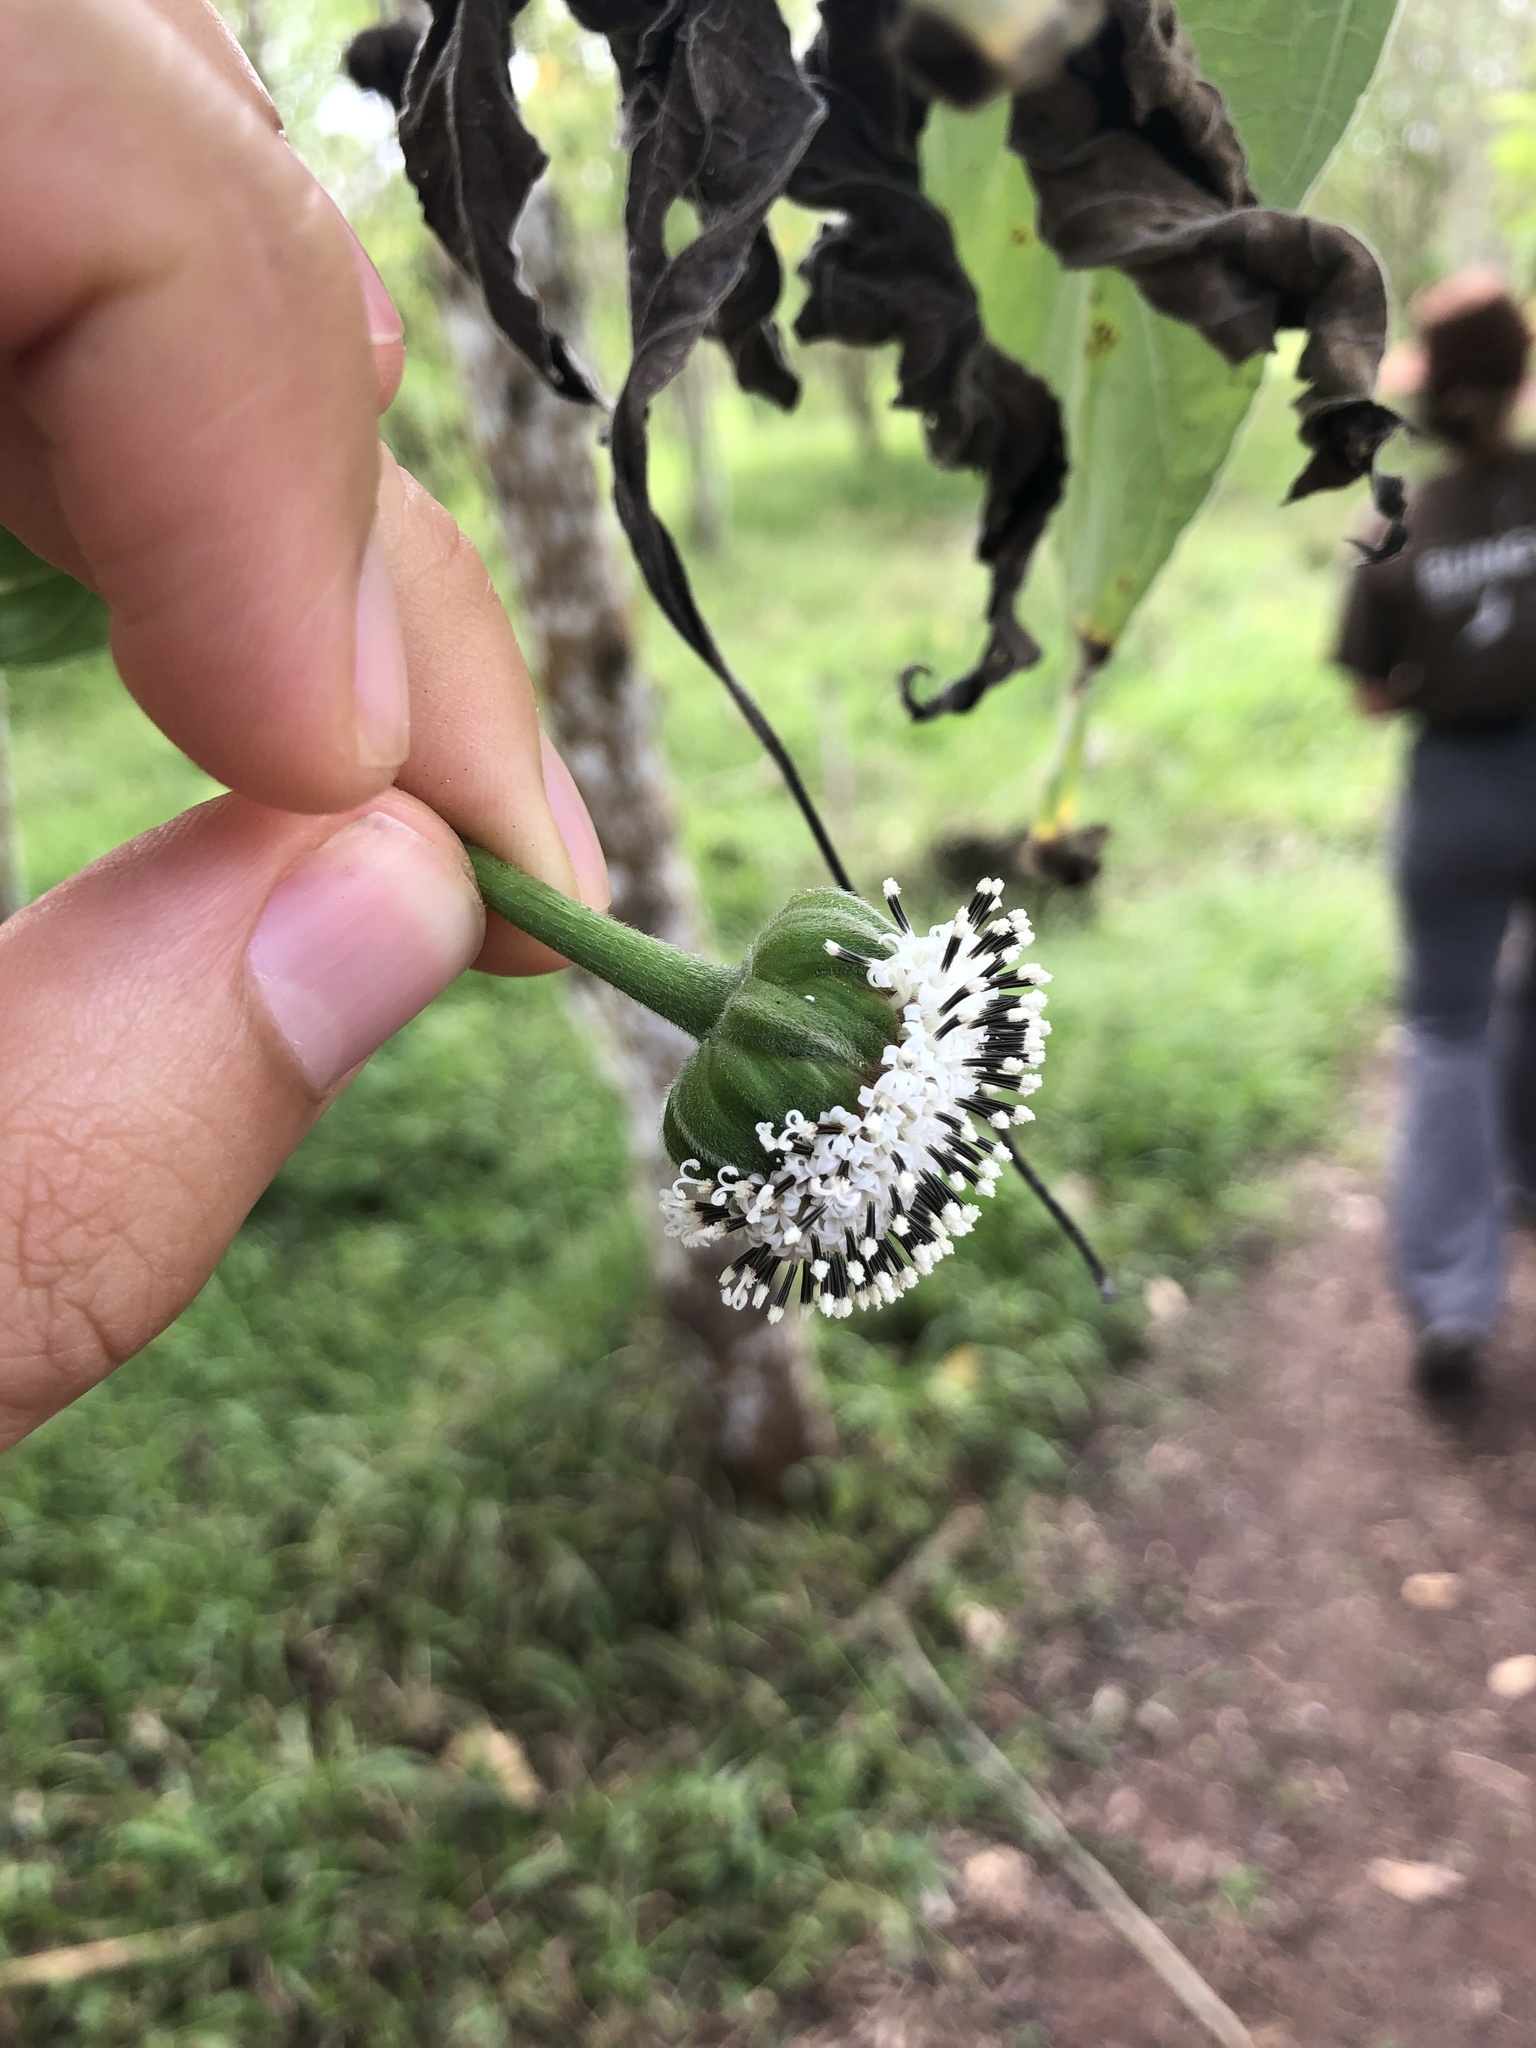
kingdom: Plantae
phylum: Tracheophyta
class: Magnoliopsida
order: Asterales
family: Asteraceae
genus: Scalesia
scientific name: Scalesia pedunculata
